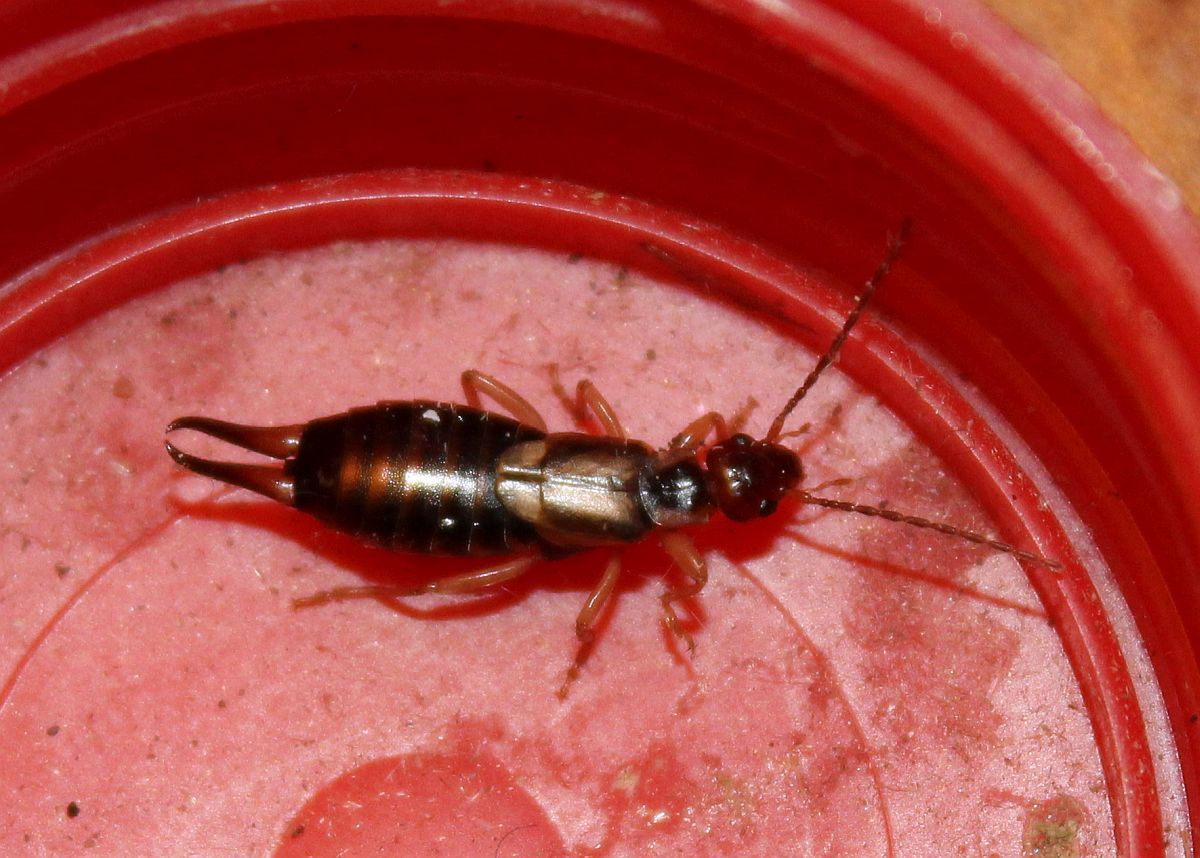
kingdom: Animalia
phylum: Arthropoda
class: Insecta
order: Dermaptera
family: Forficulidae
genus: Forficula
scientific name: Forficula
